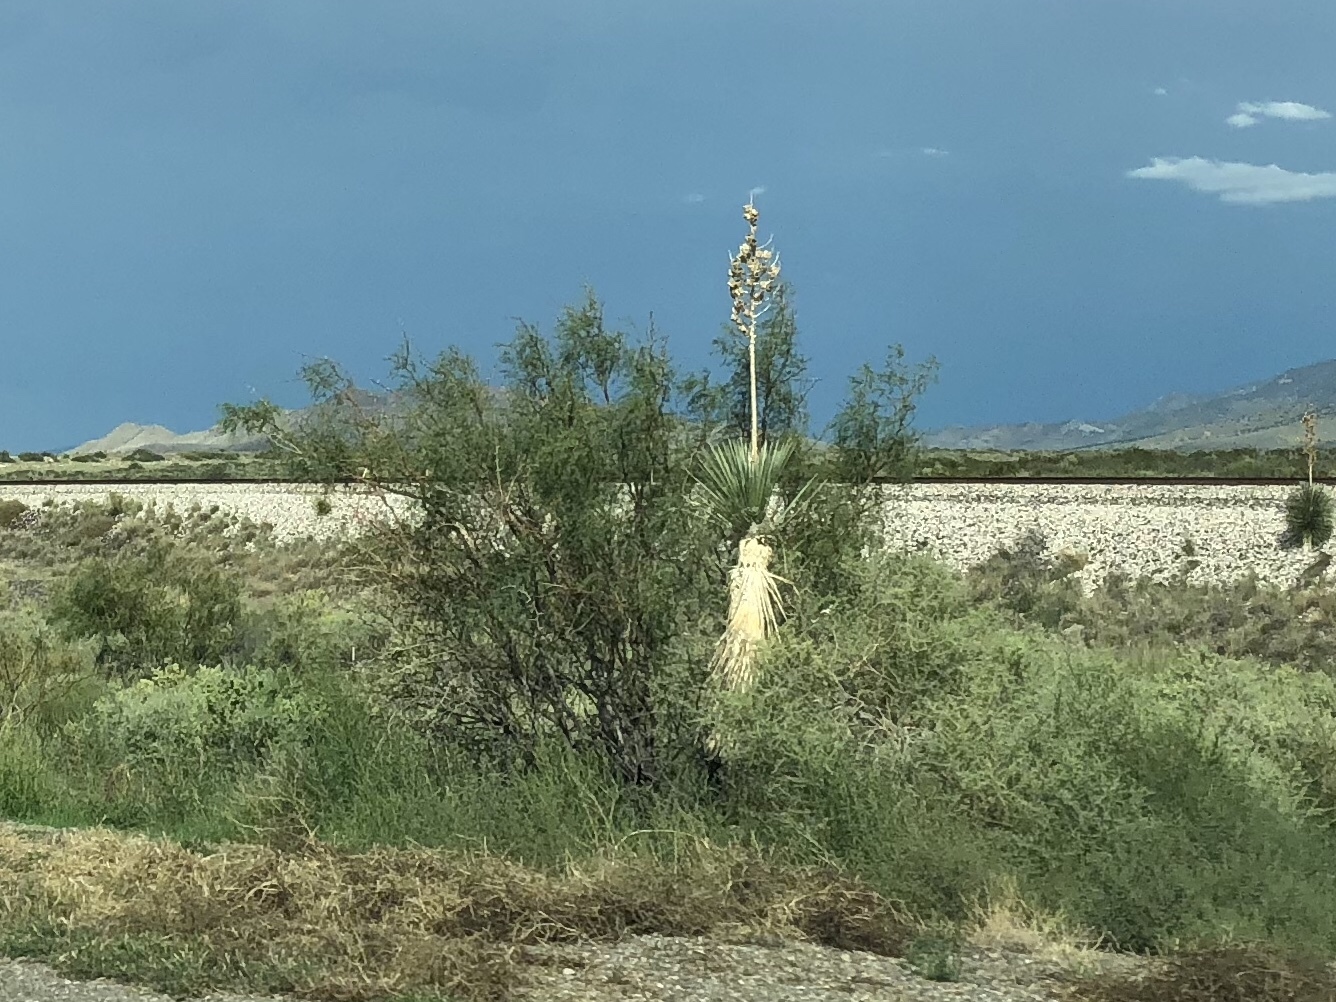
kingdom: Plantae
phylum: Tracheophyta
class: Liliopsida
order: Asparagales
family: Asparagaceae
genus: Yucca
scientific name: Yucca elata
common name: Palmella
